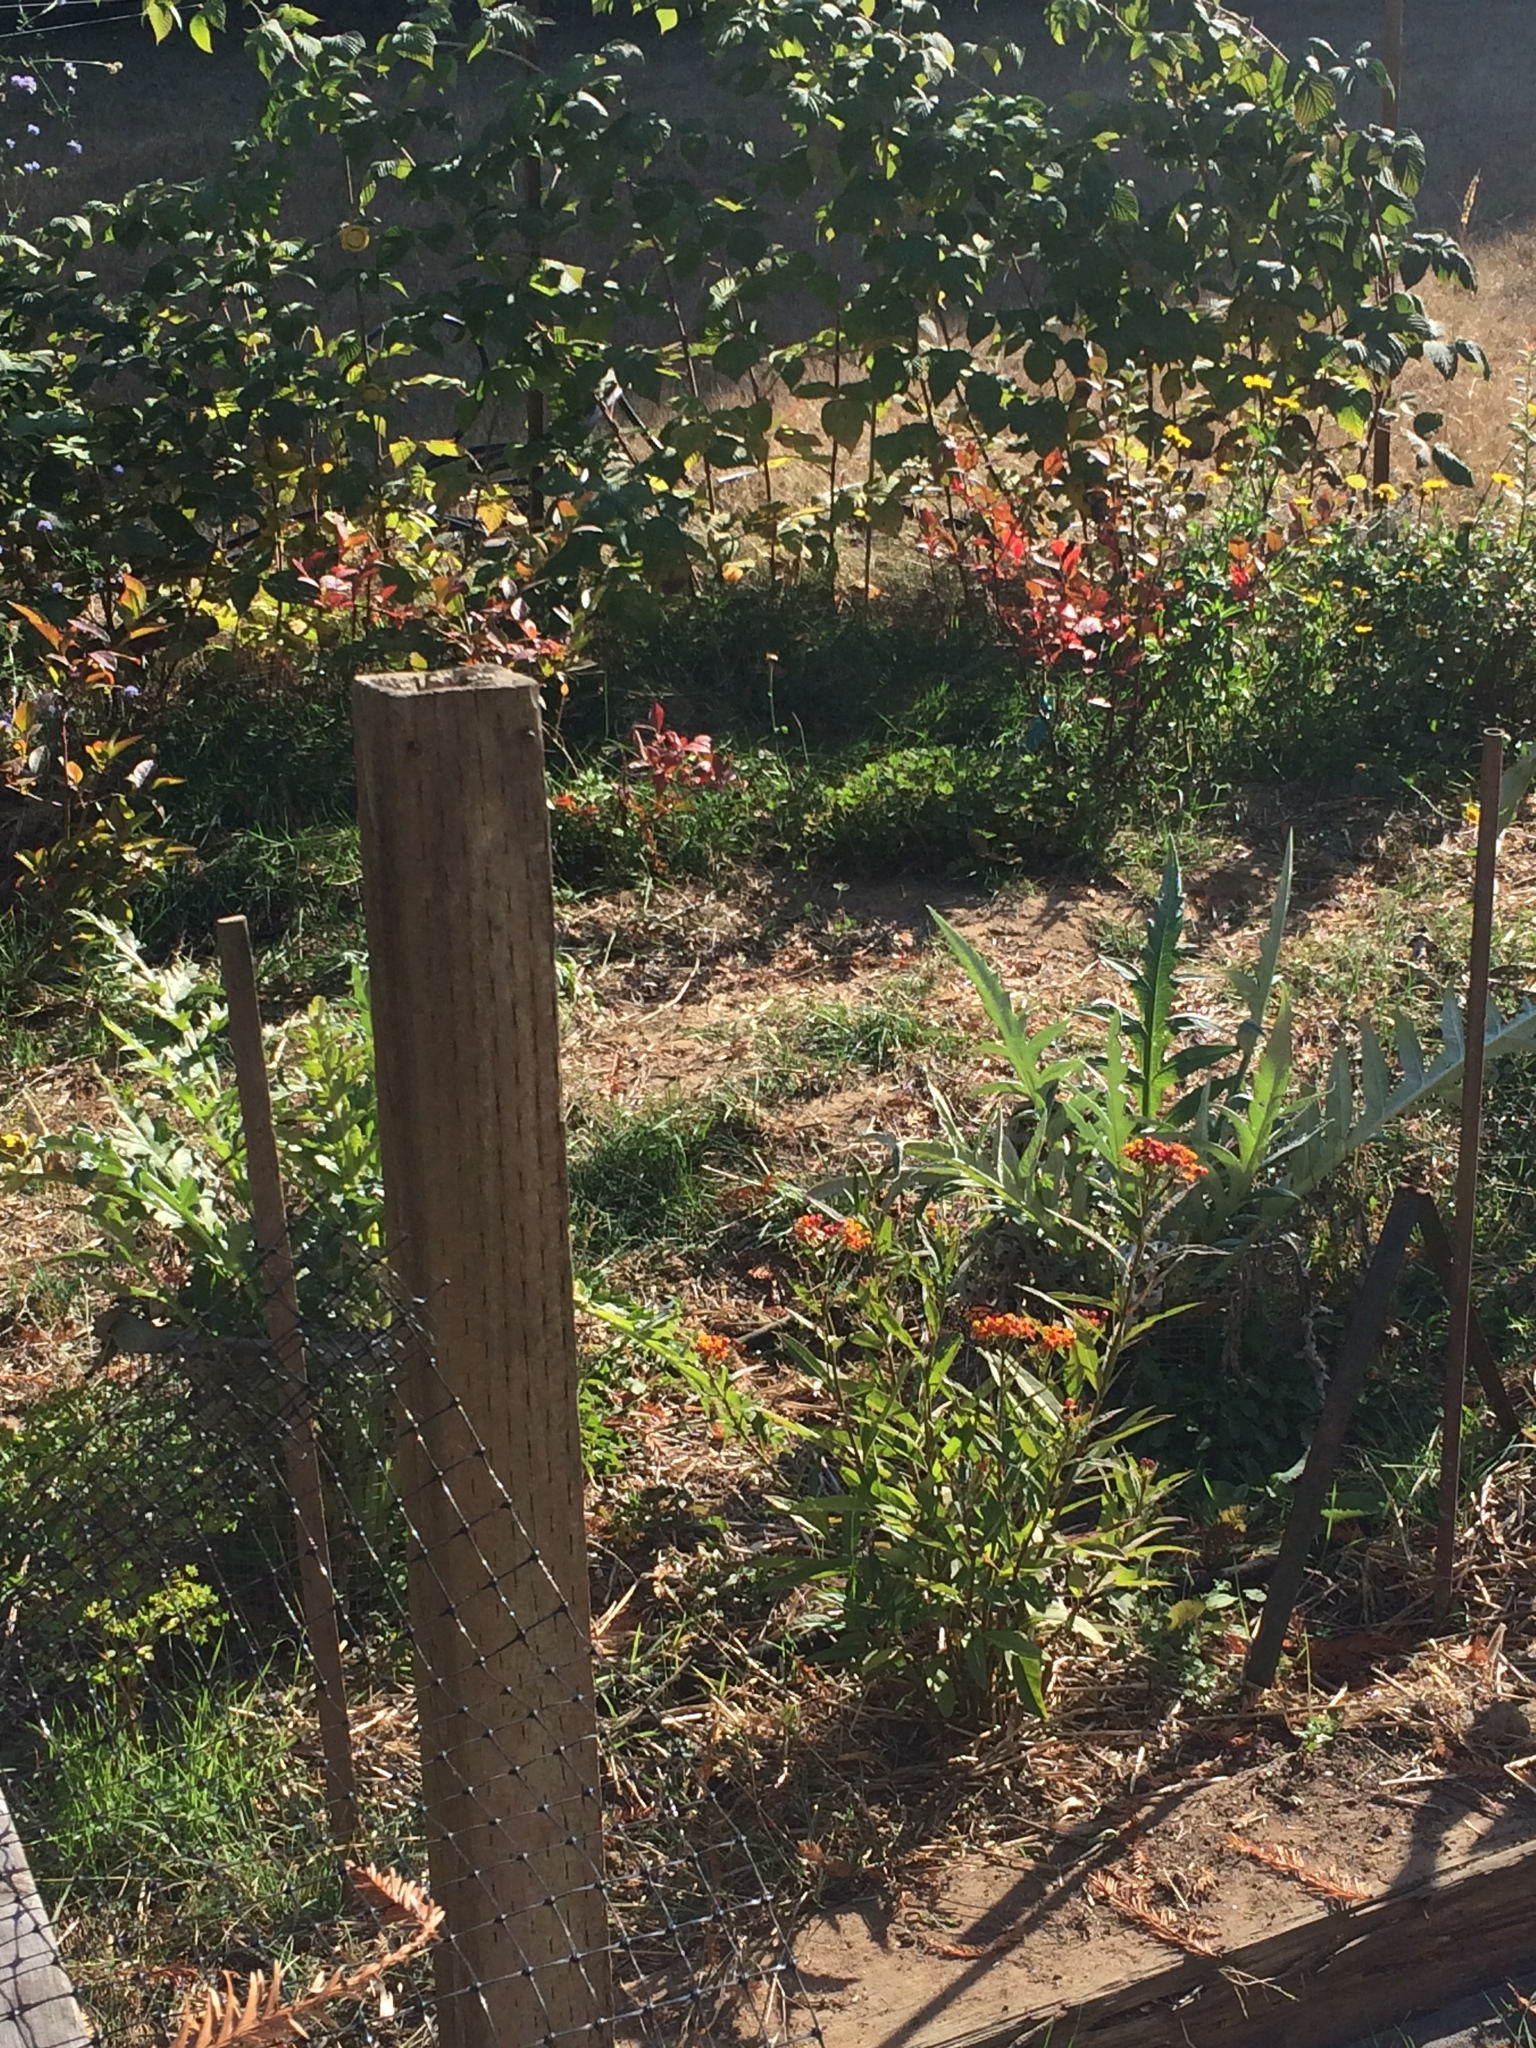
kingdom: Animalia
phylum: Arthropoda
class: Insecta
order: Lepidoptera
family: Nymphalidae
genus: Danaus
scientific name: Danaus plexippus
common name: Monarch
